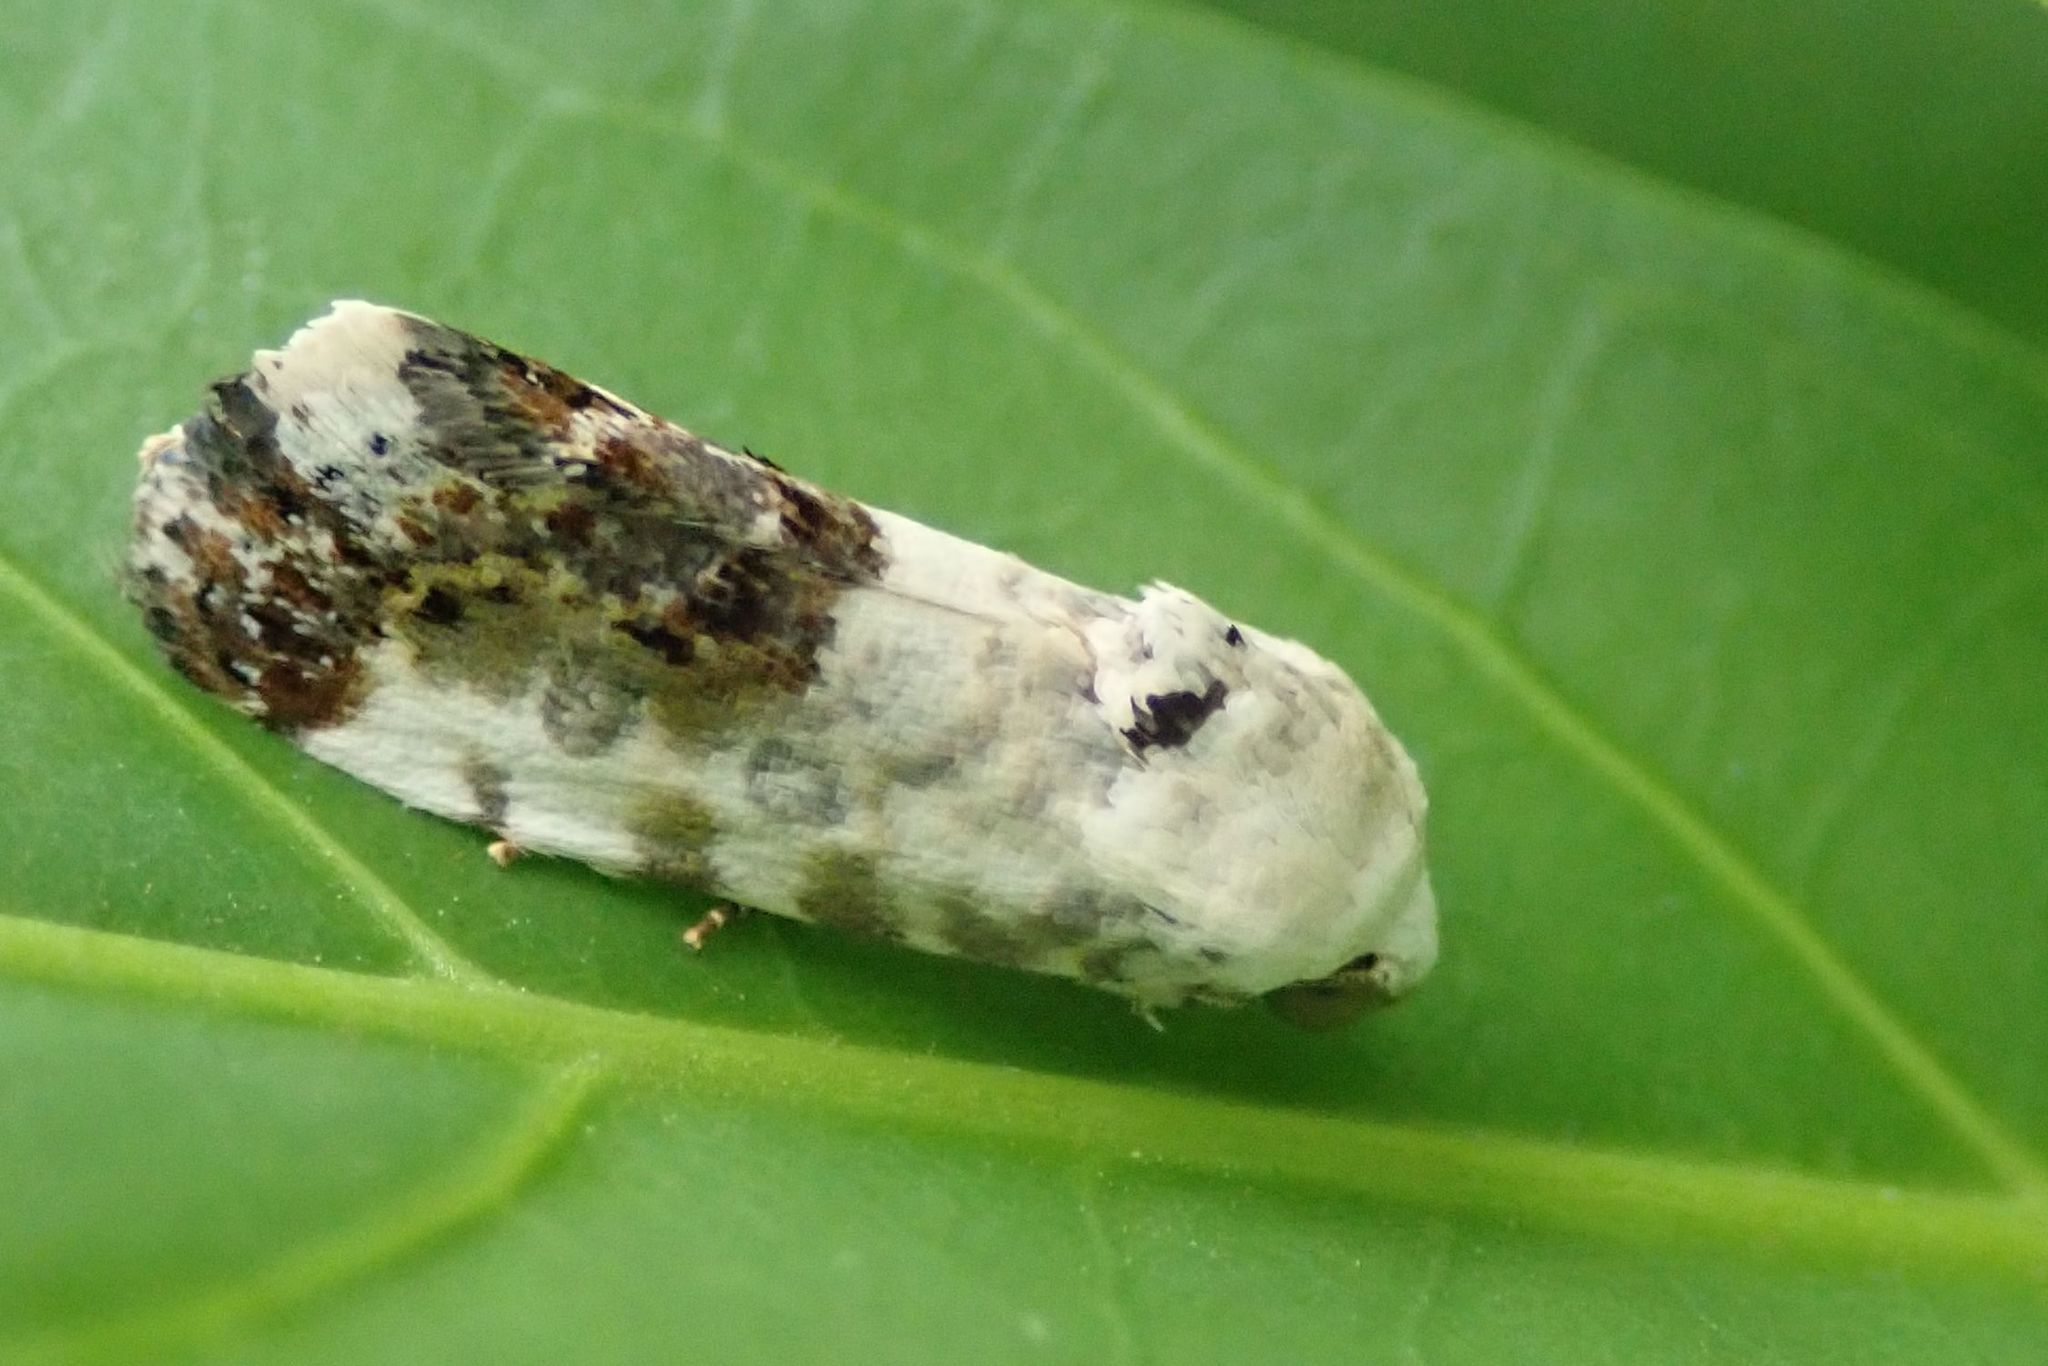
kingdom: Animalia
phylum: Arthropoda
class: Insecta
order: Lepidoptera
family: Noctuidae
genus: Acontia
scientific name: Acontia
